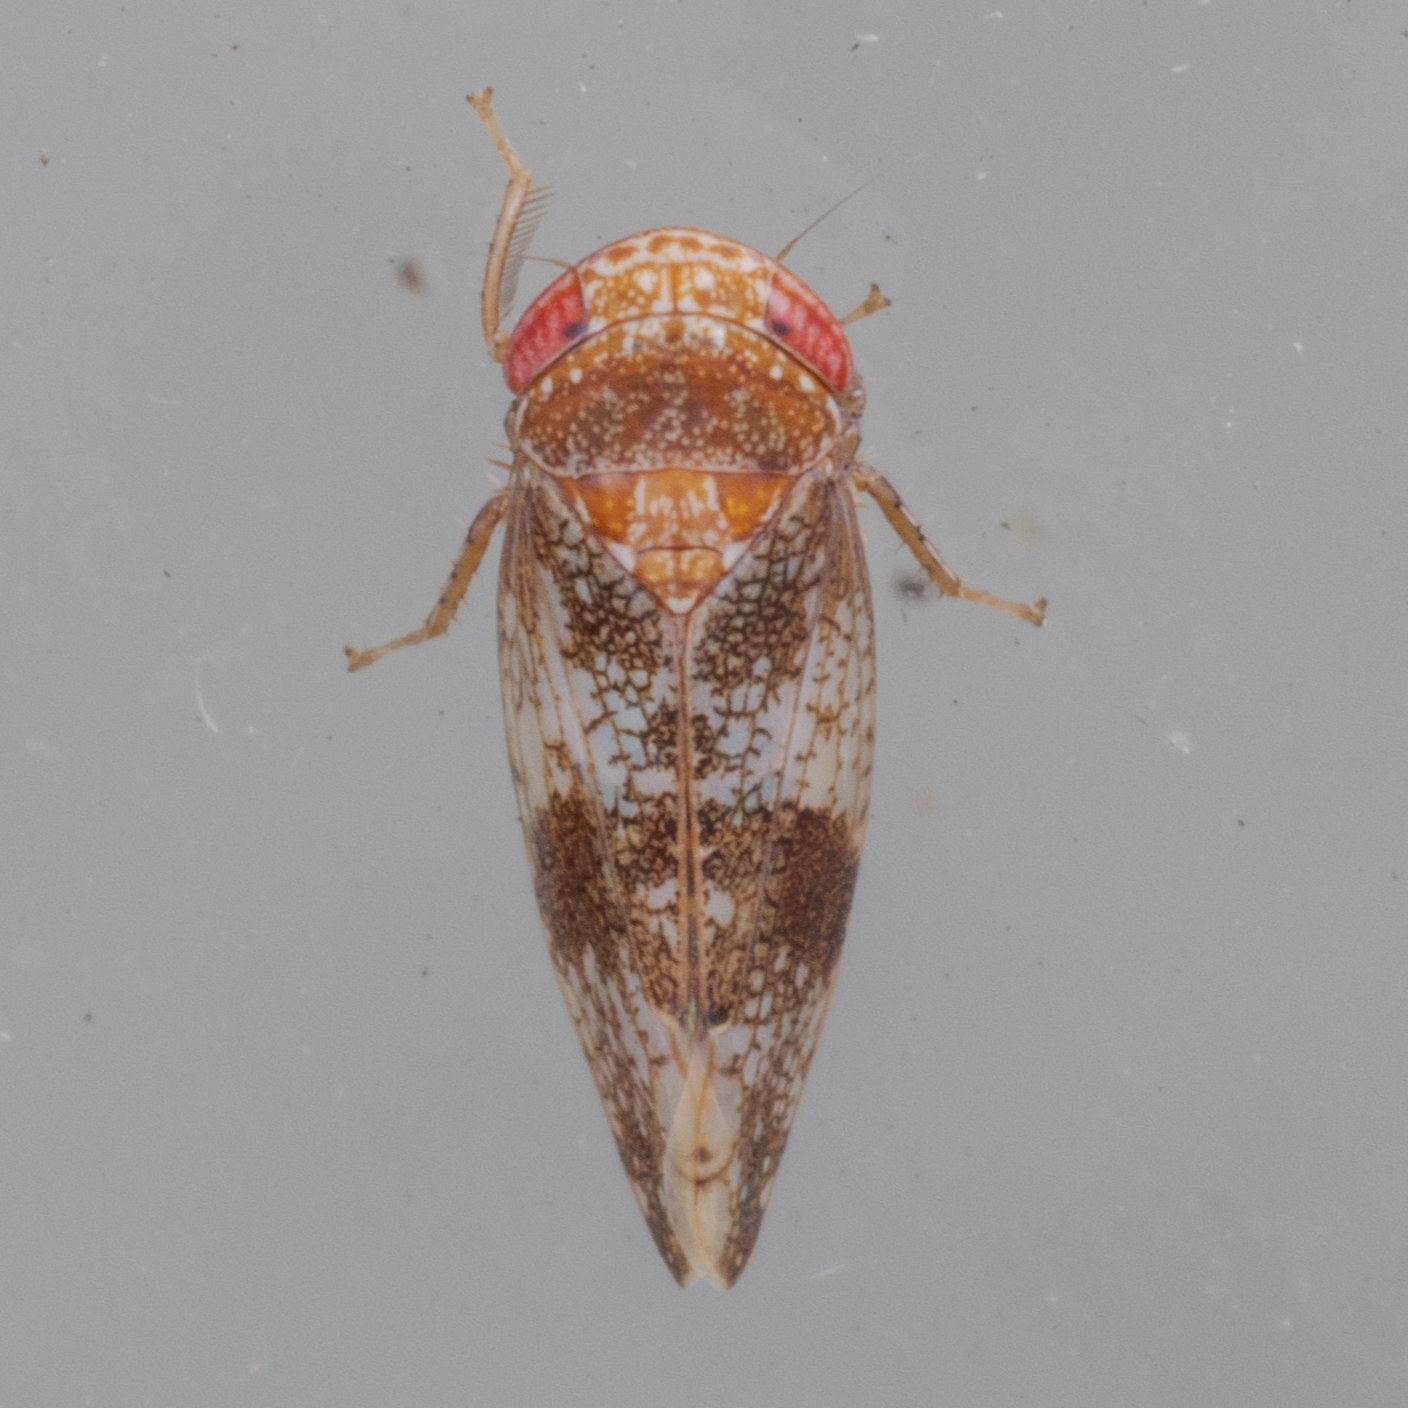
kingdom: Animalia
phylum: Arthropoda
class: Insecta
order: Hemiptera
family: Cicadellidae
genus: Norvellina
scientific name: Norvellina helenae
